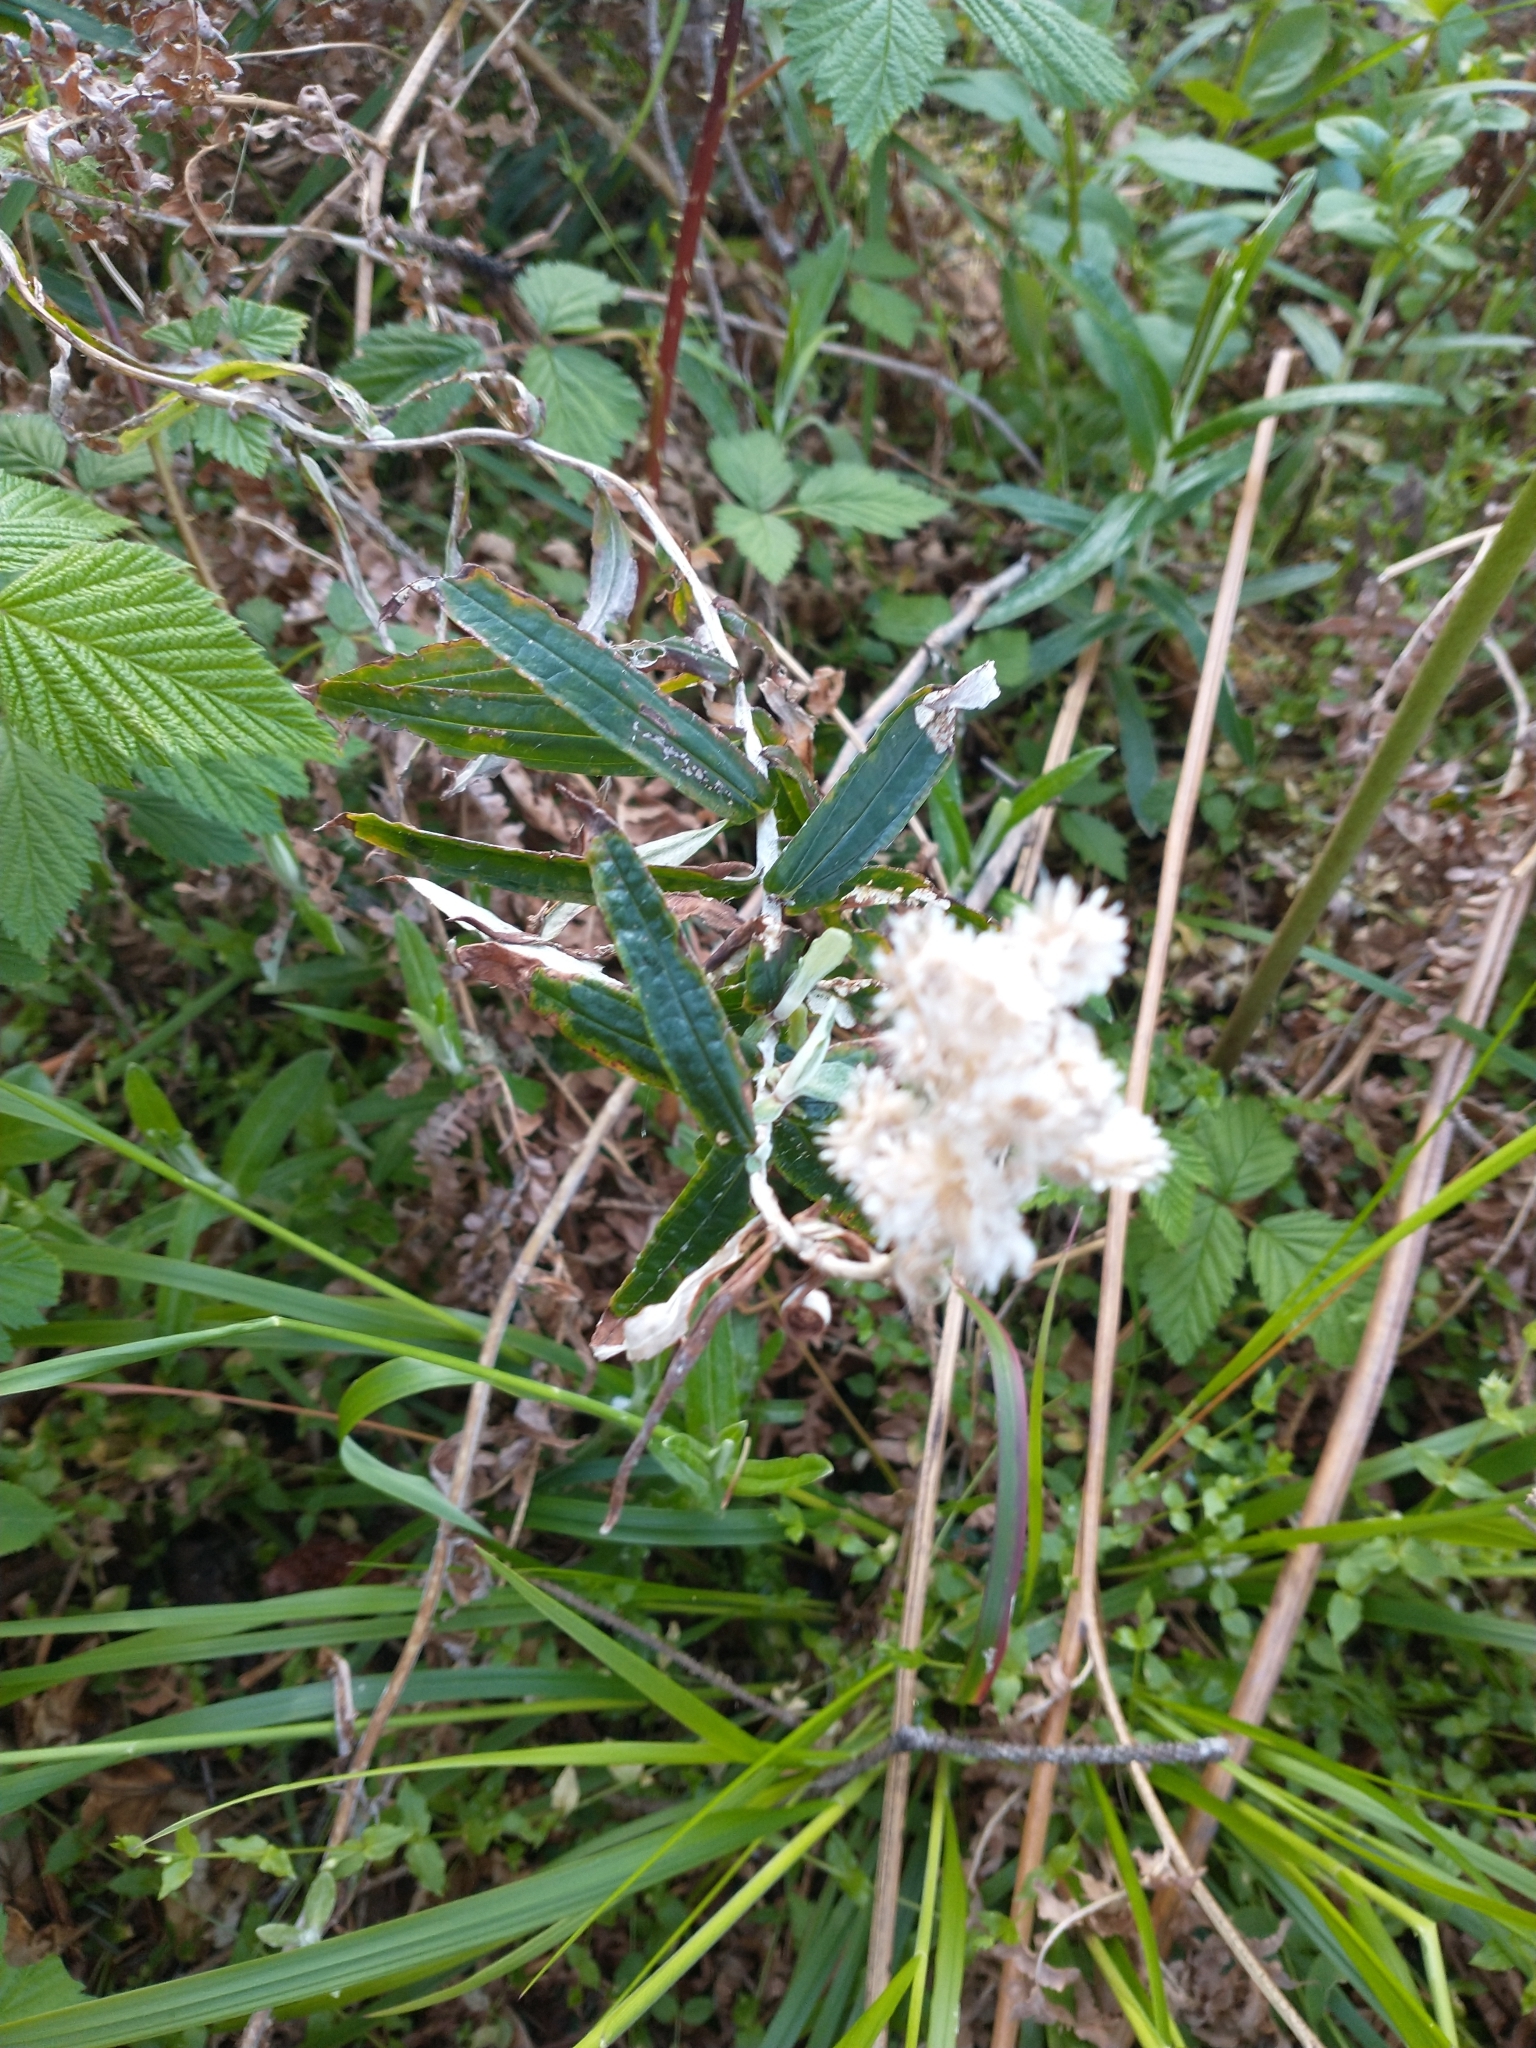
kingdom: Plantae
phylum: Tracheophyta
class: Magnoliopsida
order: Asterales
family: Asteraceae
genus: Anaphalis
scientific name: Anaphalis margaritacea
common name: Pearly everlasting
